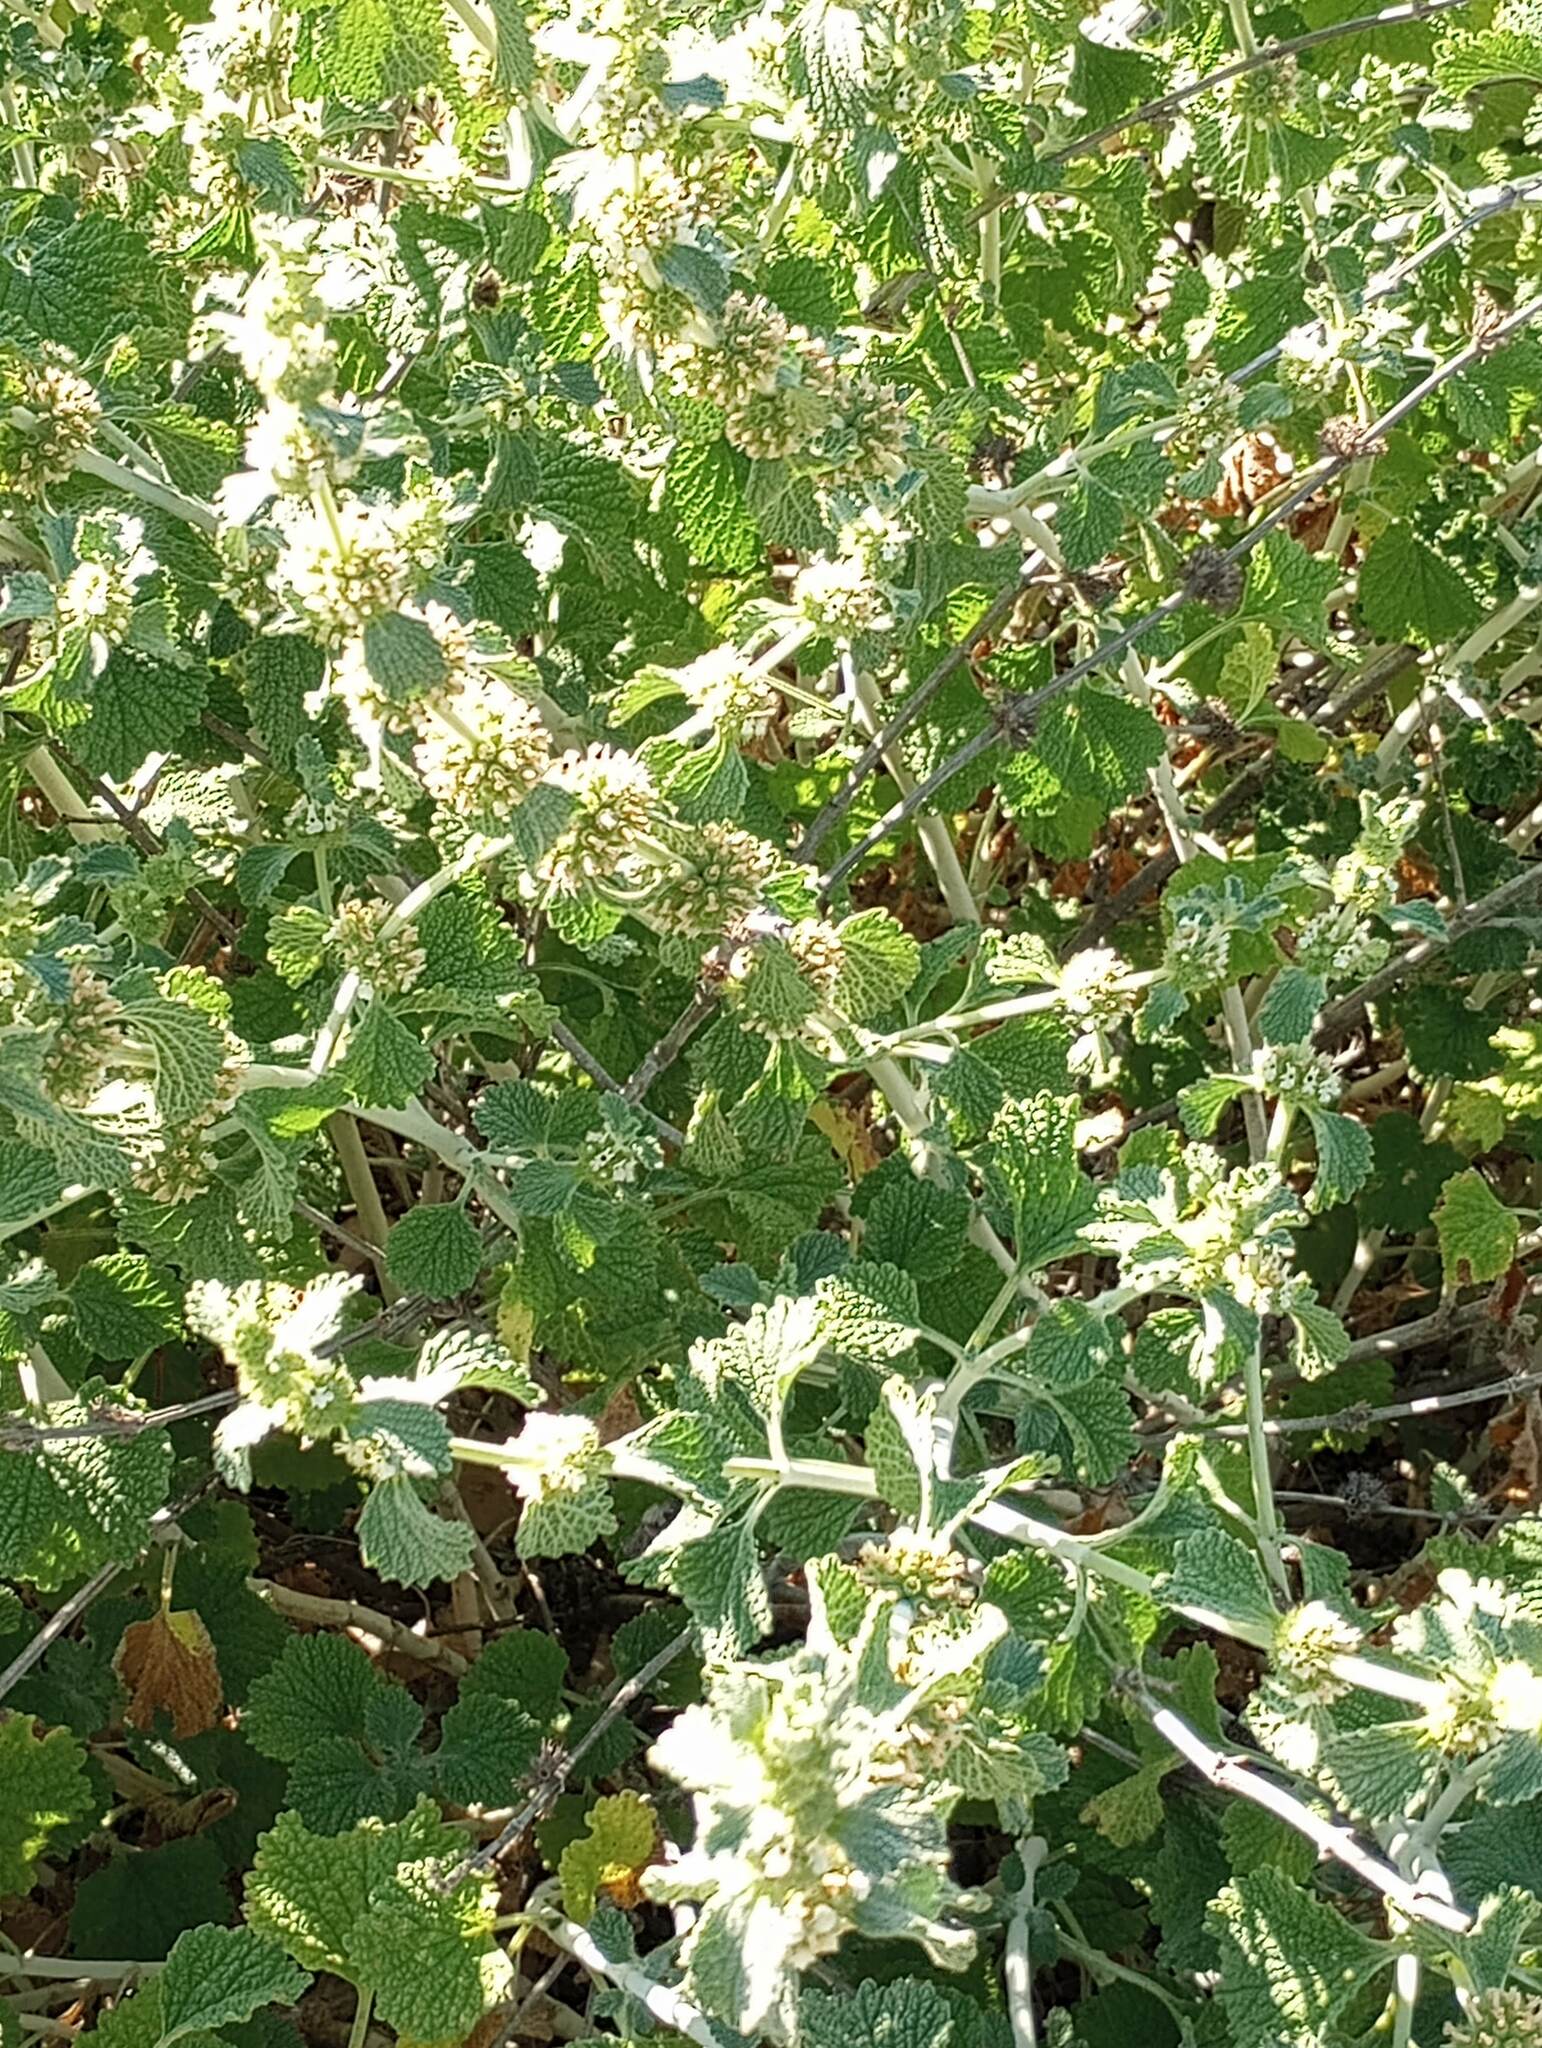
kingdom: Plantae
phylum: Tracheophyta
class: Magnoliopsida
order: Lamiales
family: Lamiaceae
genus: Marrubium
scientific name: Marrubium vulgare
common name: Horehound
